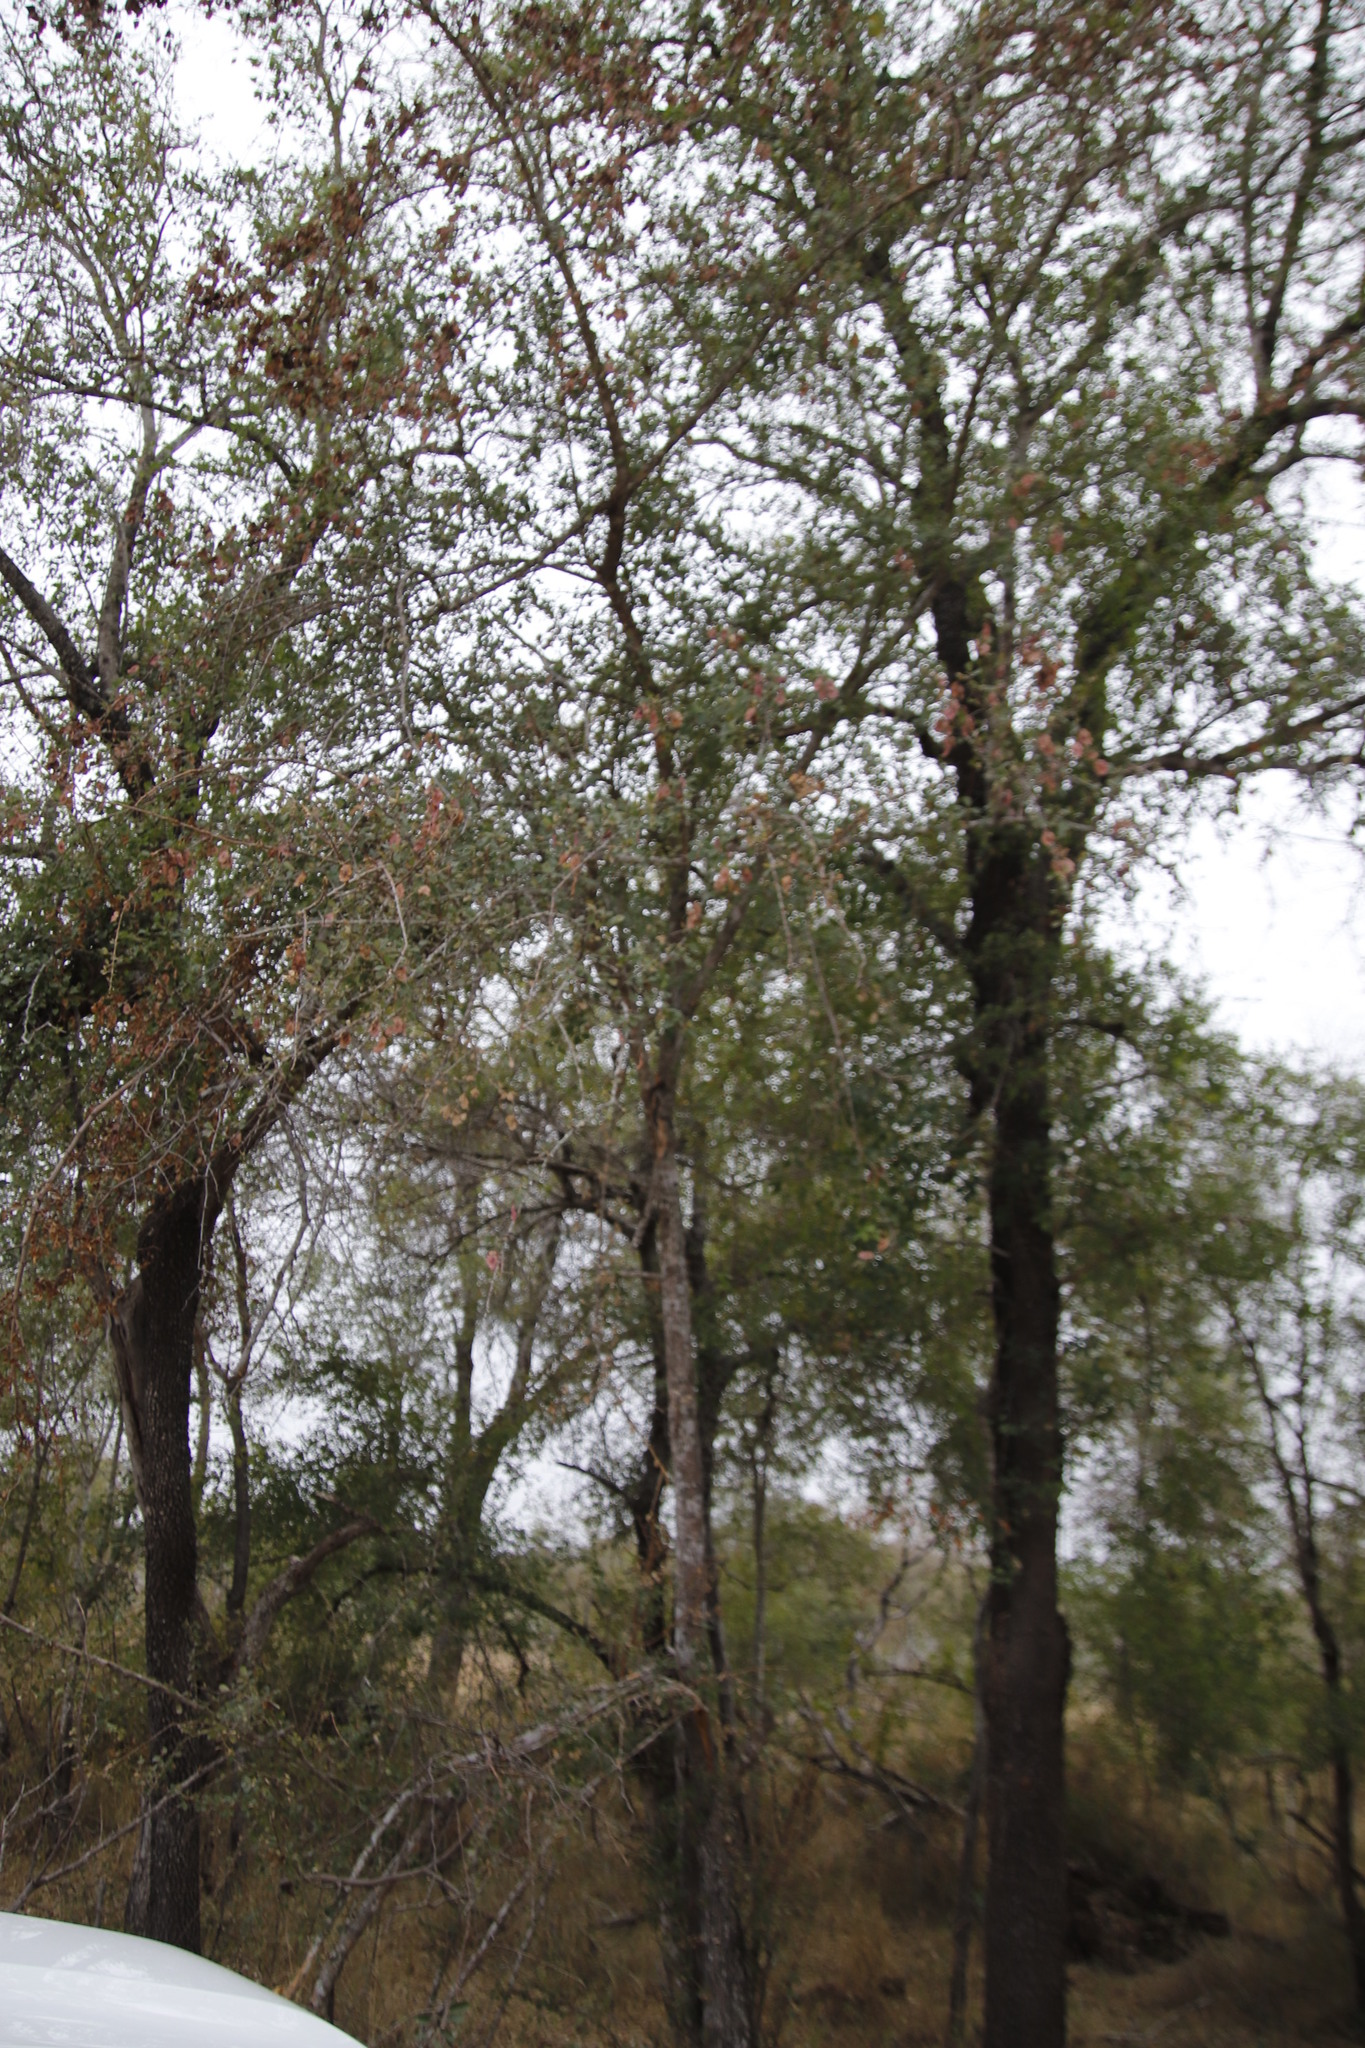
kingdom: Plantae
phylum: Tracheophyta
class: Magnoliopsida
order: Myrtales
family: Combretaceae
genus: Terminalia
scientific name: Terminalia prunioides
